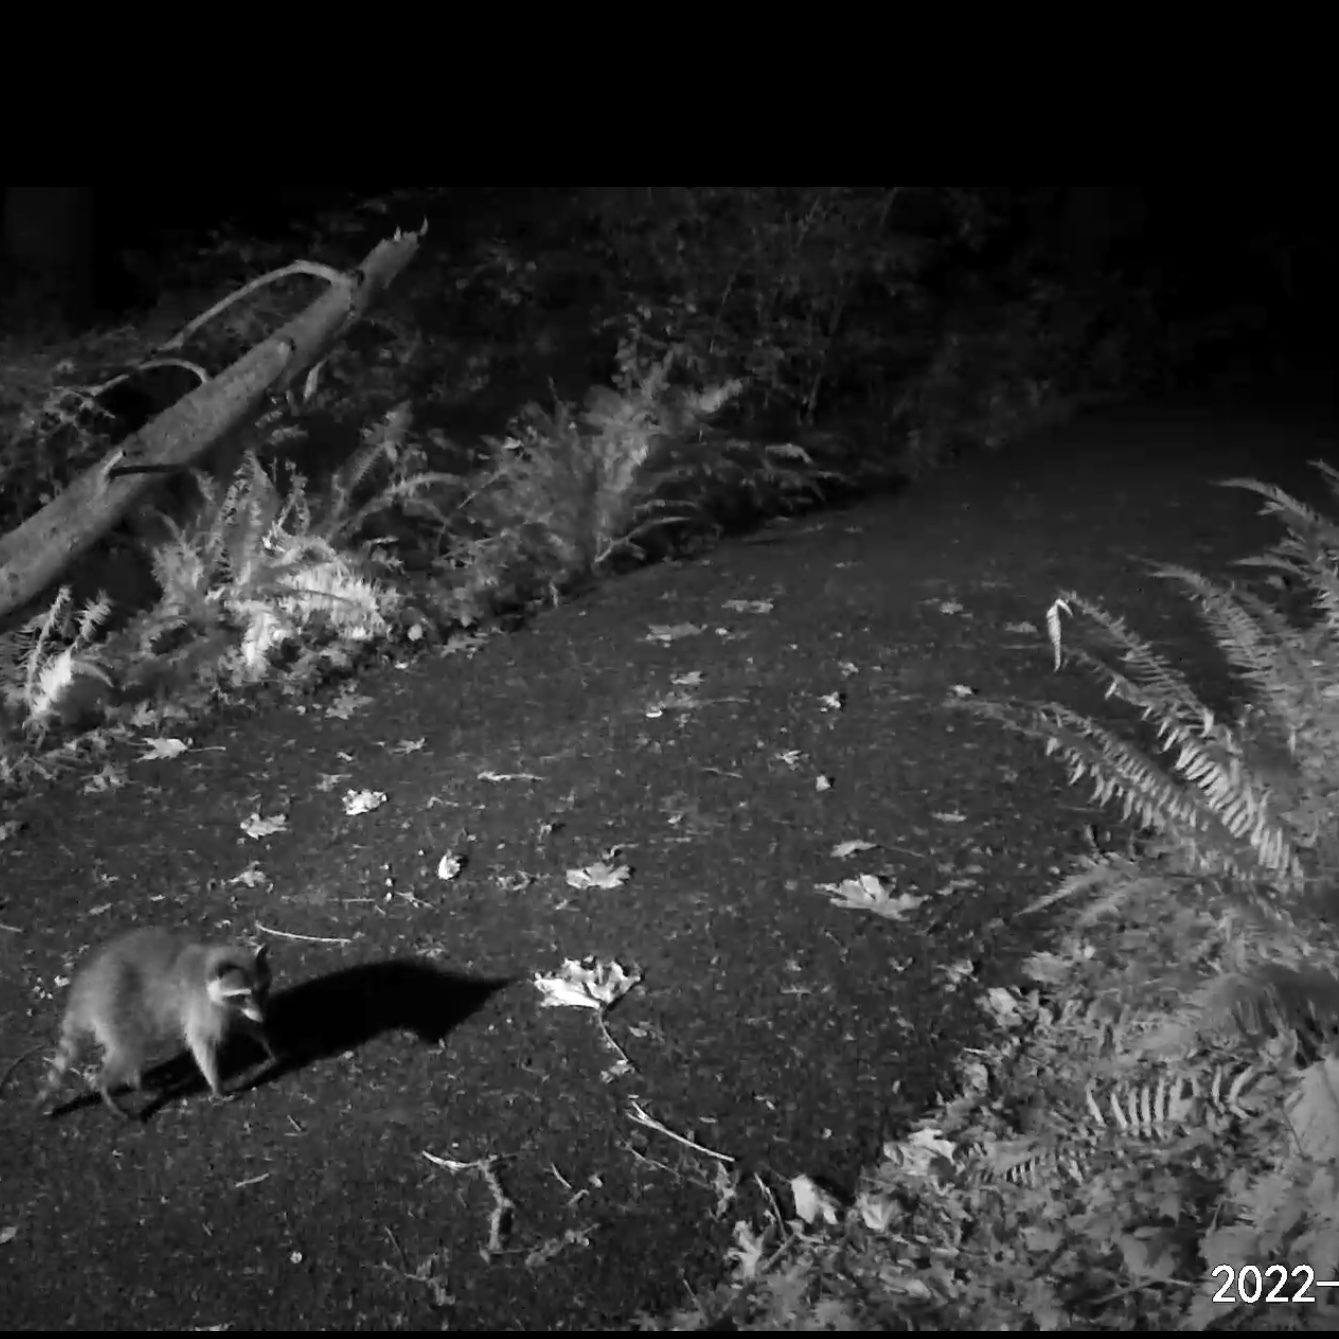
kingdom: Animalia
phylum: Chordata
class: Mammalia
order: Carnivora
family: Procyonidae
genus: Procyon
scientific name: Procyon lotor
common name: Raccoon
